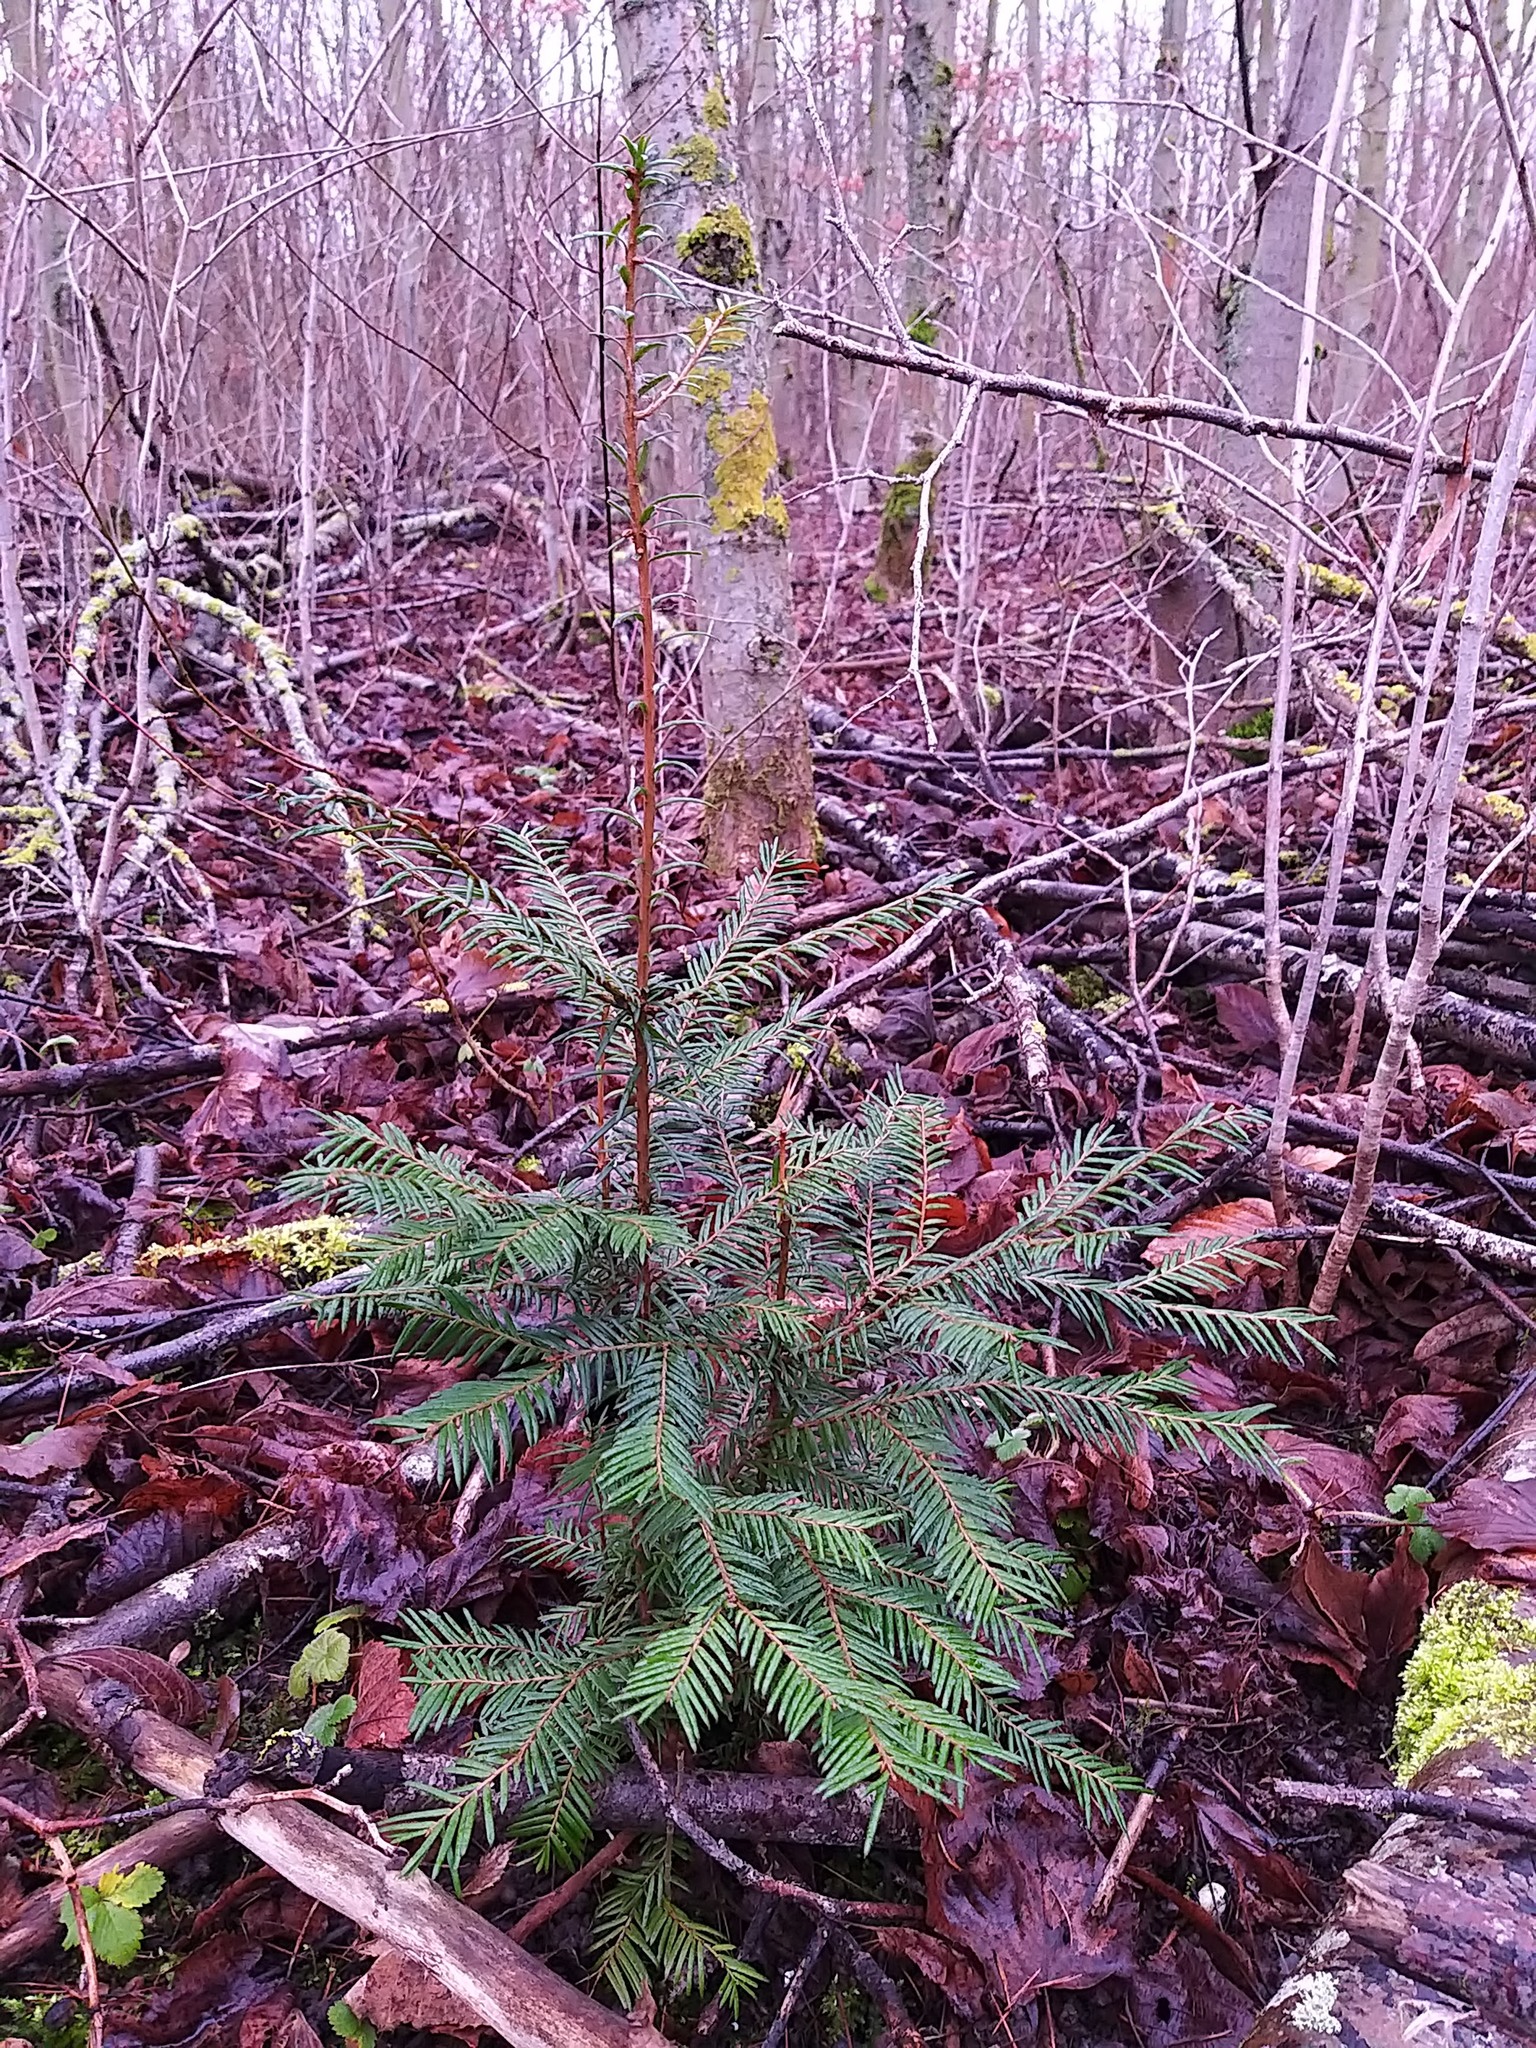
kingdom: Plantae
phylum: Tracheophyta
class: Pinopsida
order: Pinales
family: Taxaceae
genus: Taxus
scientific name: Taxus baccata
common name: Yew
